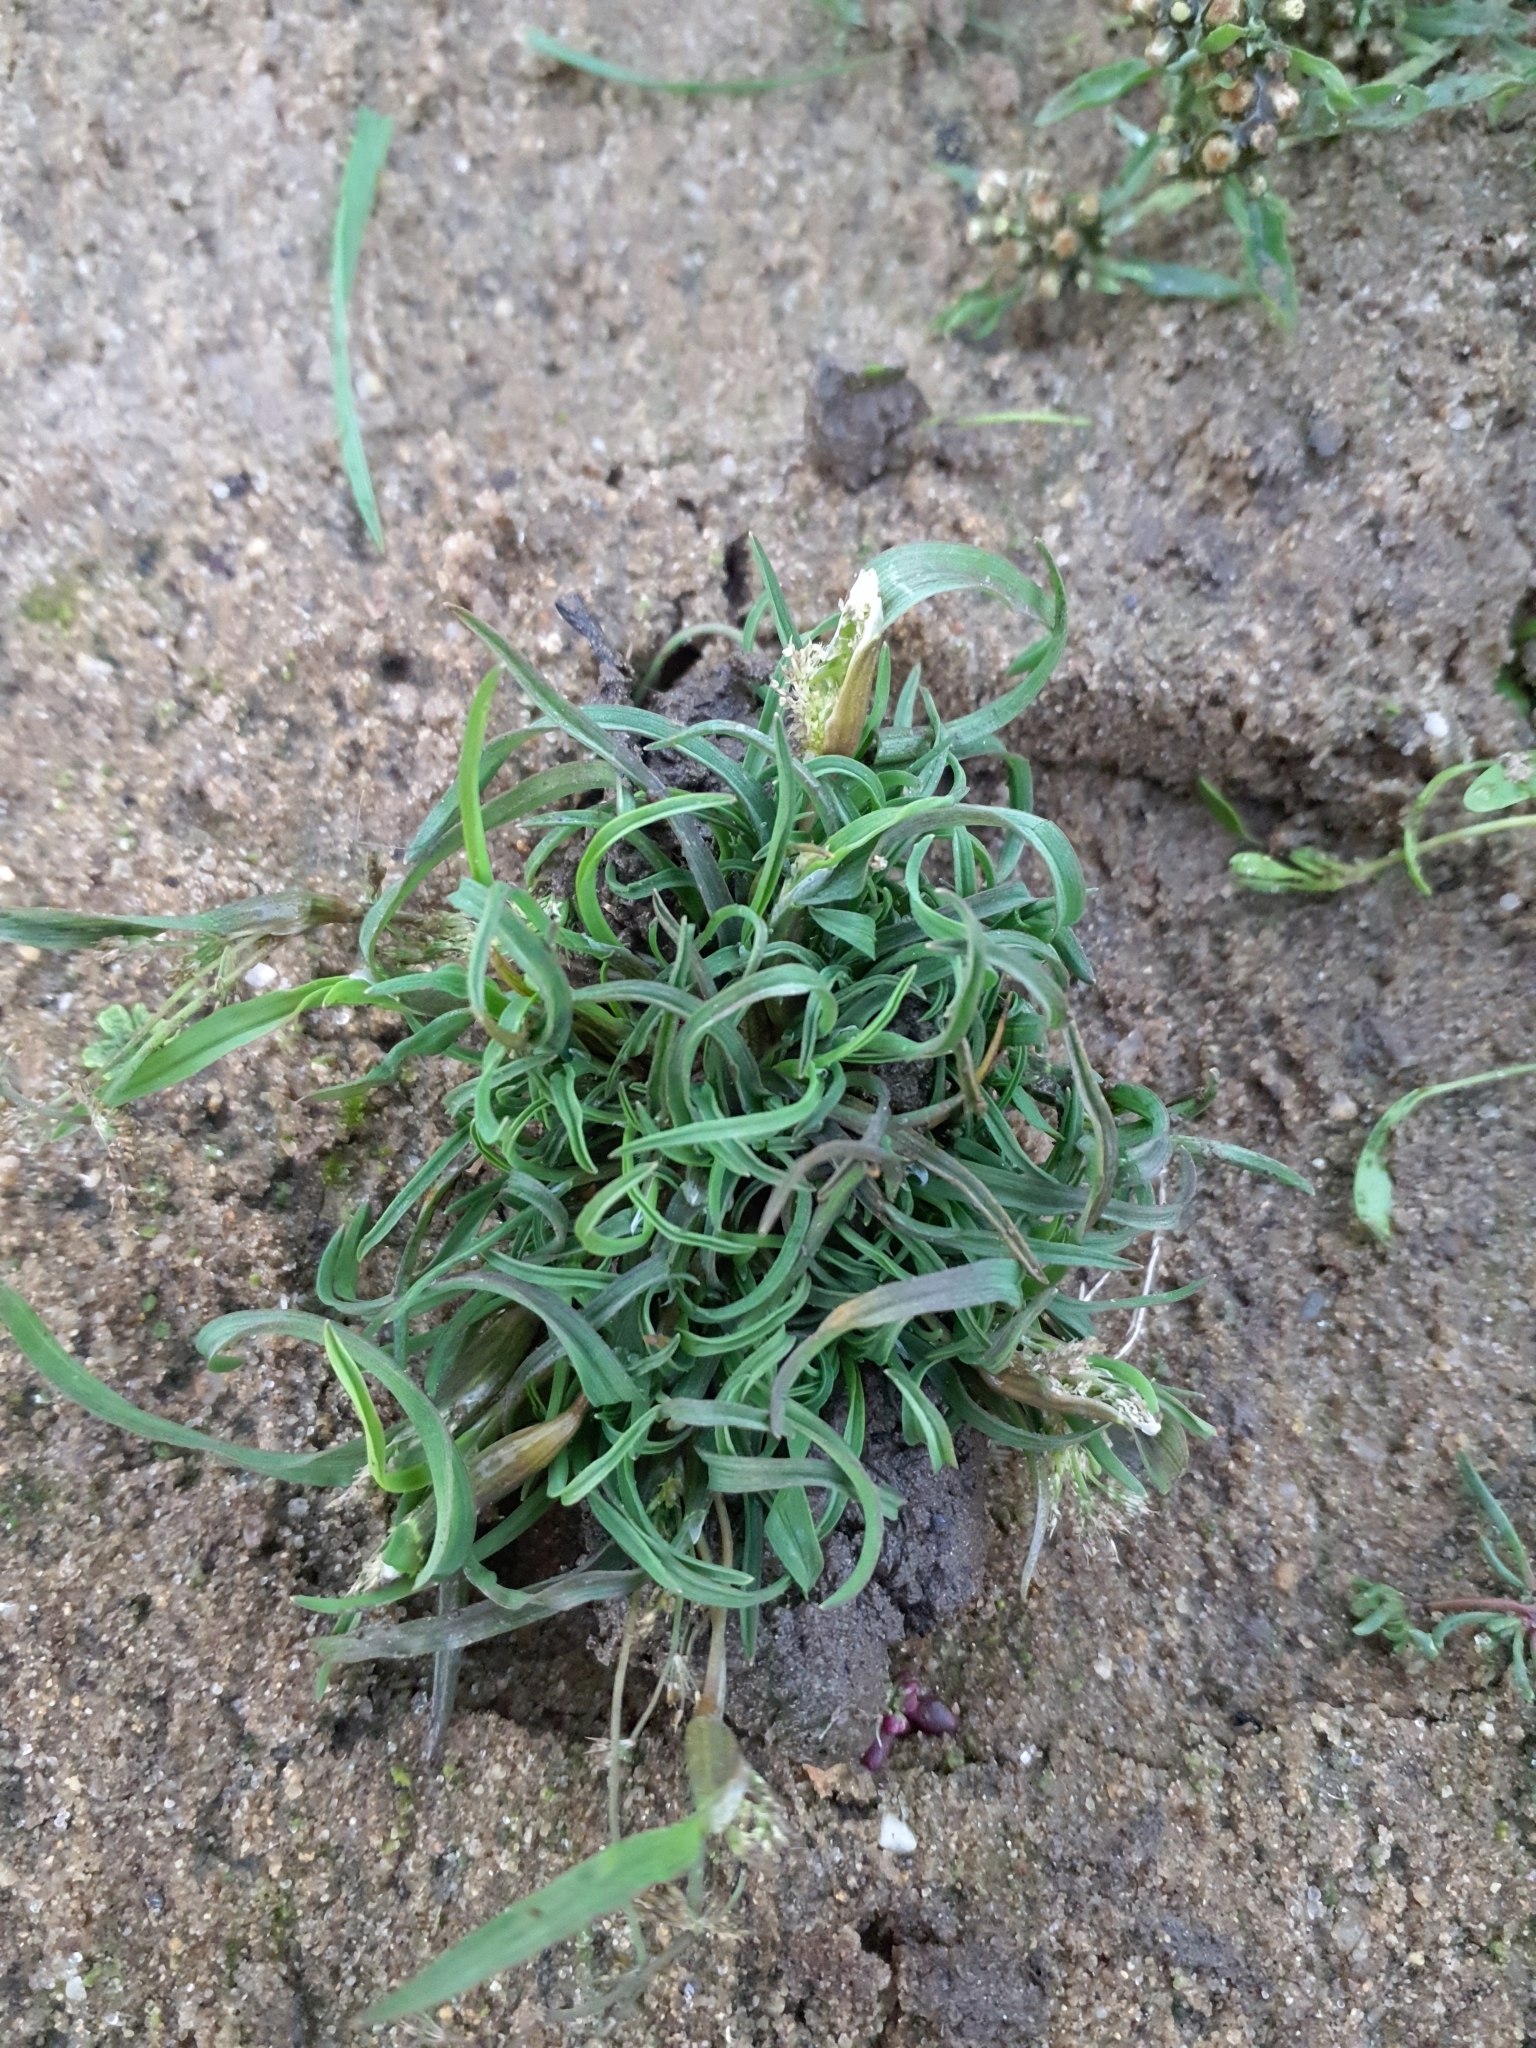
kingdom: Plantae
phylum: Tracheophyta
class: Liliopsida
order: Poales
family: Poaceae
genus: Coleanthus
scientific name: Coleanthus subtilis
